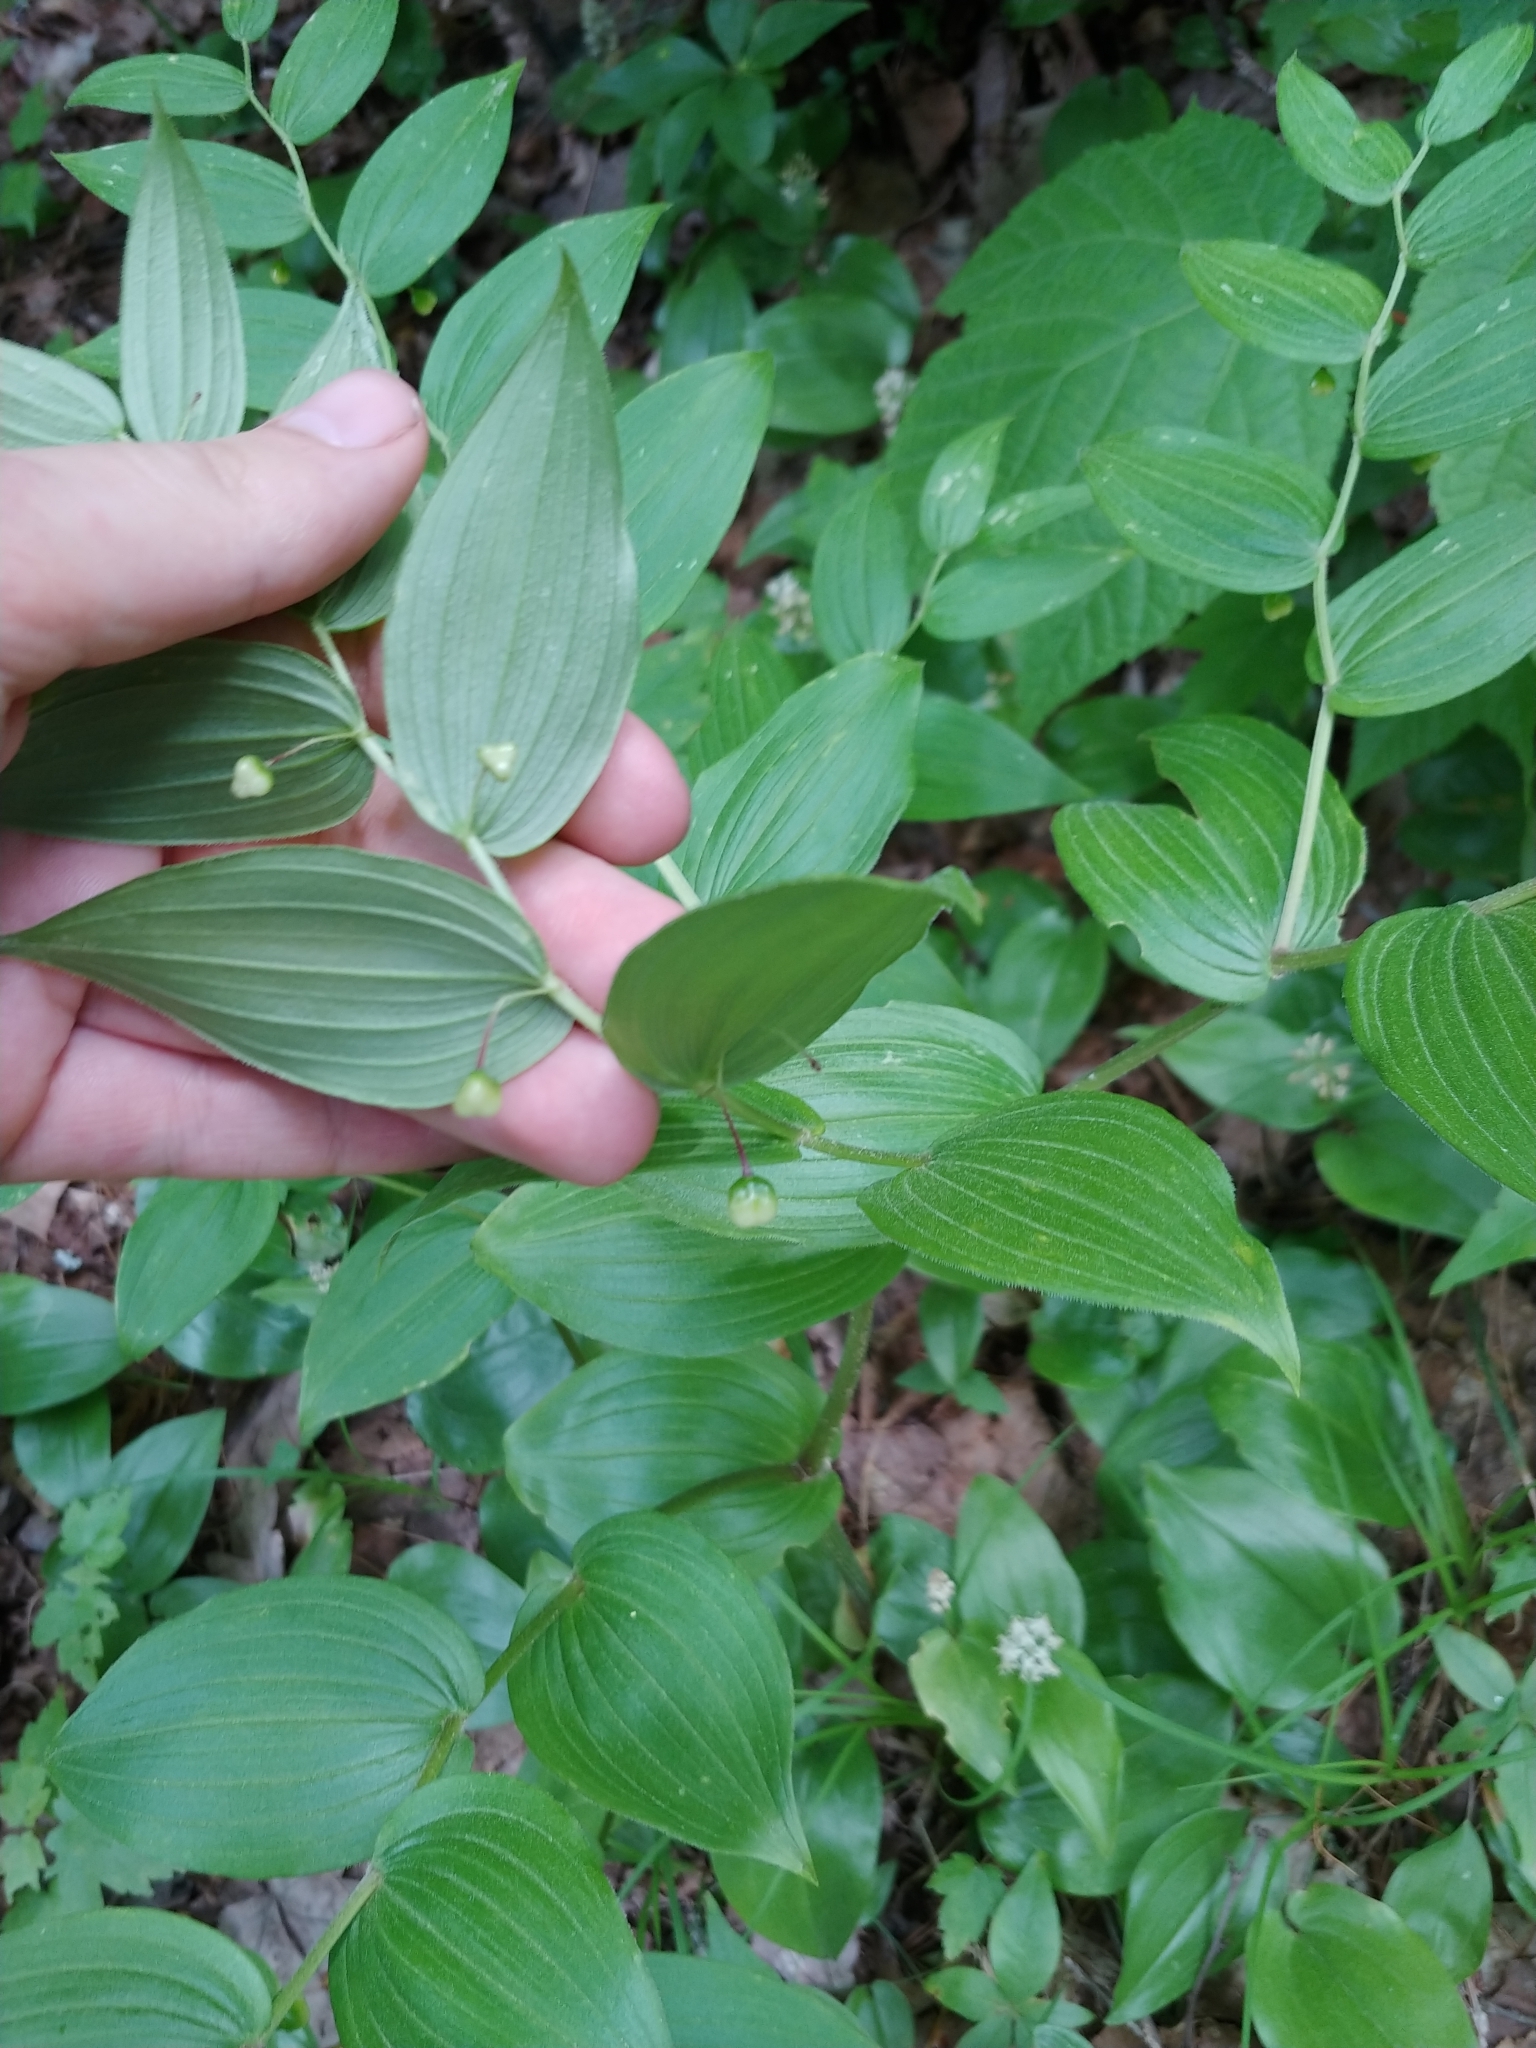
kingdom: Plantae
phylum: Tracheophyta
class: Liliopsida
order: Liliales
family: Liliaceae
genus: Streptopus
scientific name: Streptopus lanceolatus
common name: Rose mandarin
